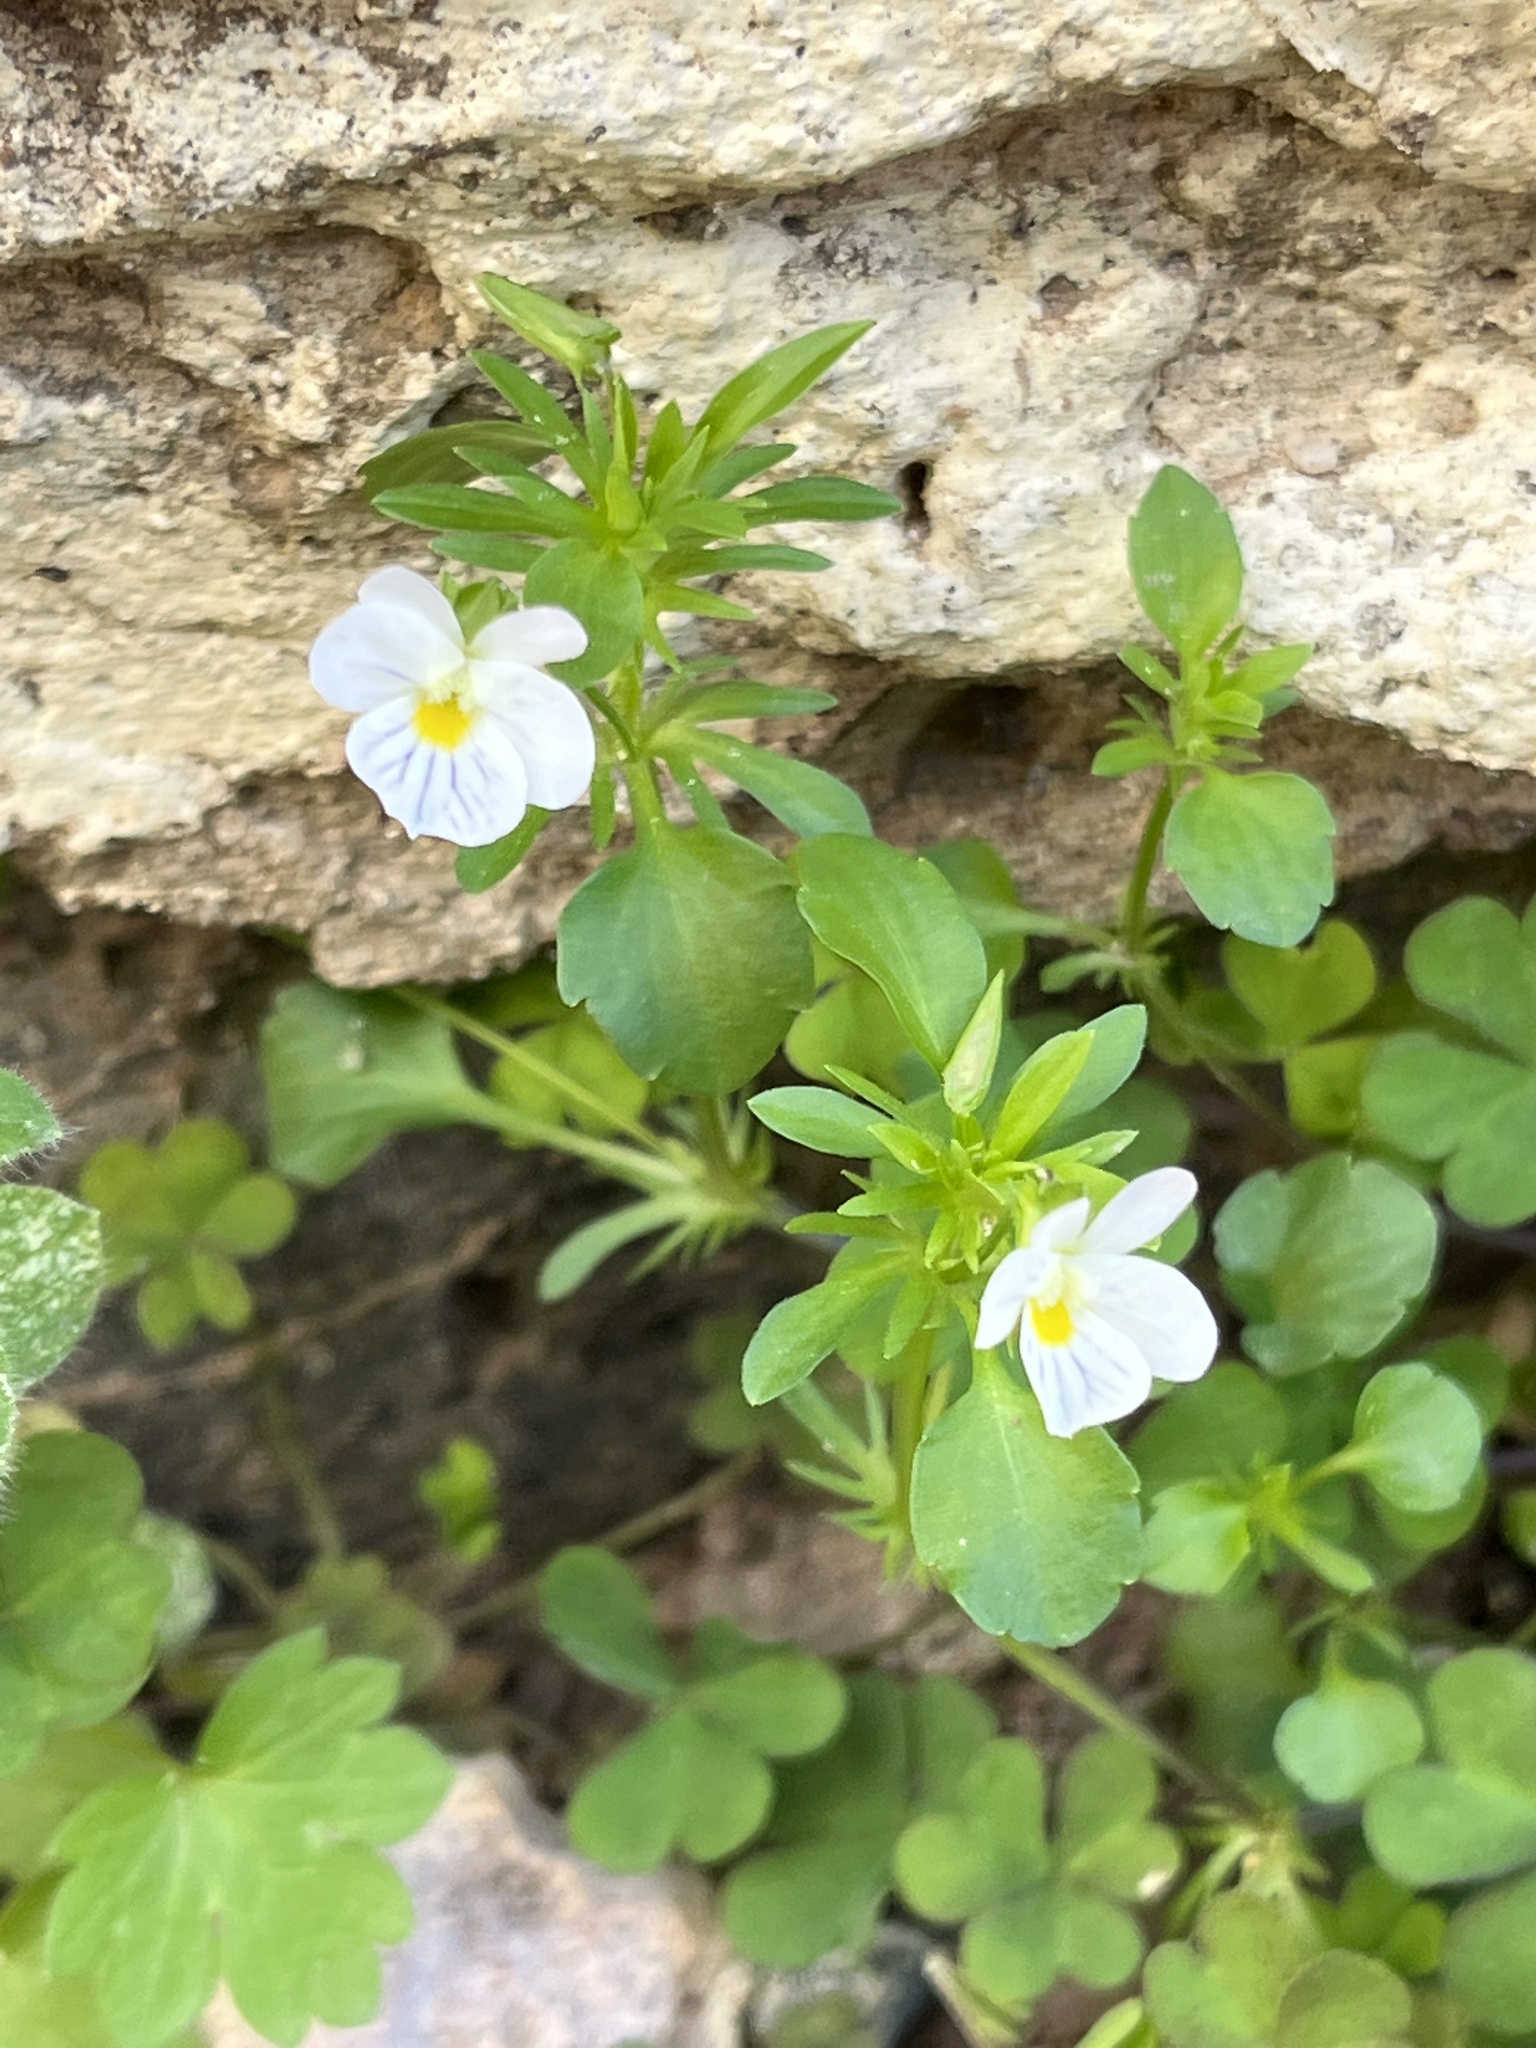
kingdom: Plantae
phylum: Tracheophyta
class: Magnoliopsida
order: Malpighiales
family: Violaceae
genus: Viola
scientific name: Viola rafinesquei
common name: American field pansy
